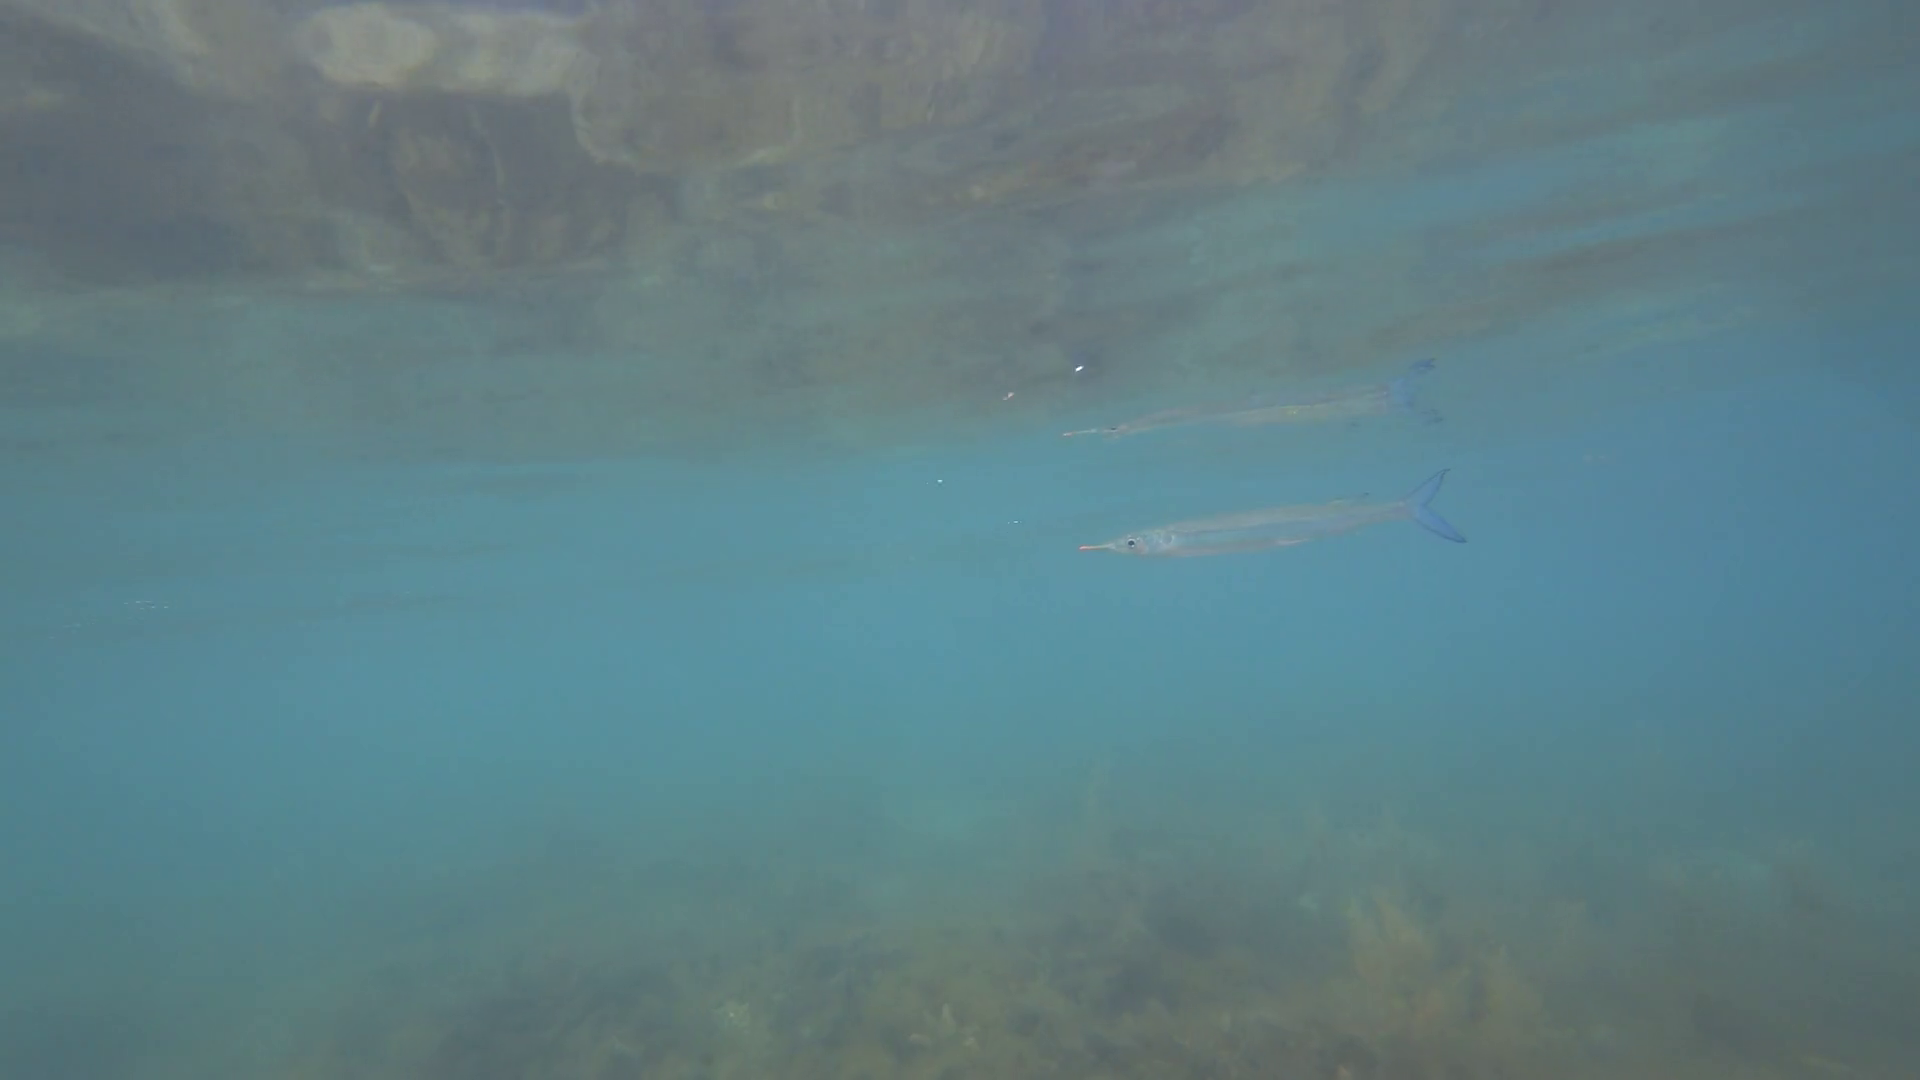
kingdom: Animalia
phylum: Chordata
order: Beloniformes
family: Hemiramphidae
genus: Hyporhamphus
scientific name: Hyporhamphus quoyi
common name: Quoy's garfish
